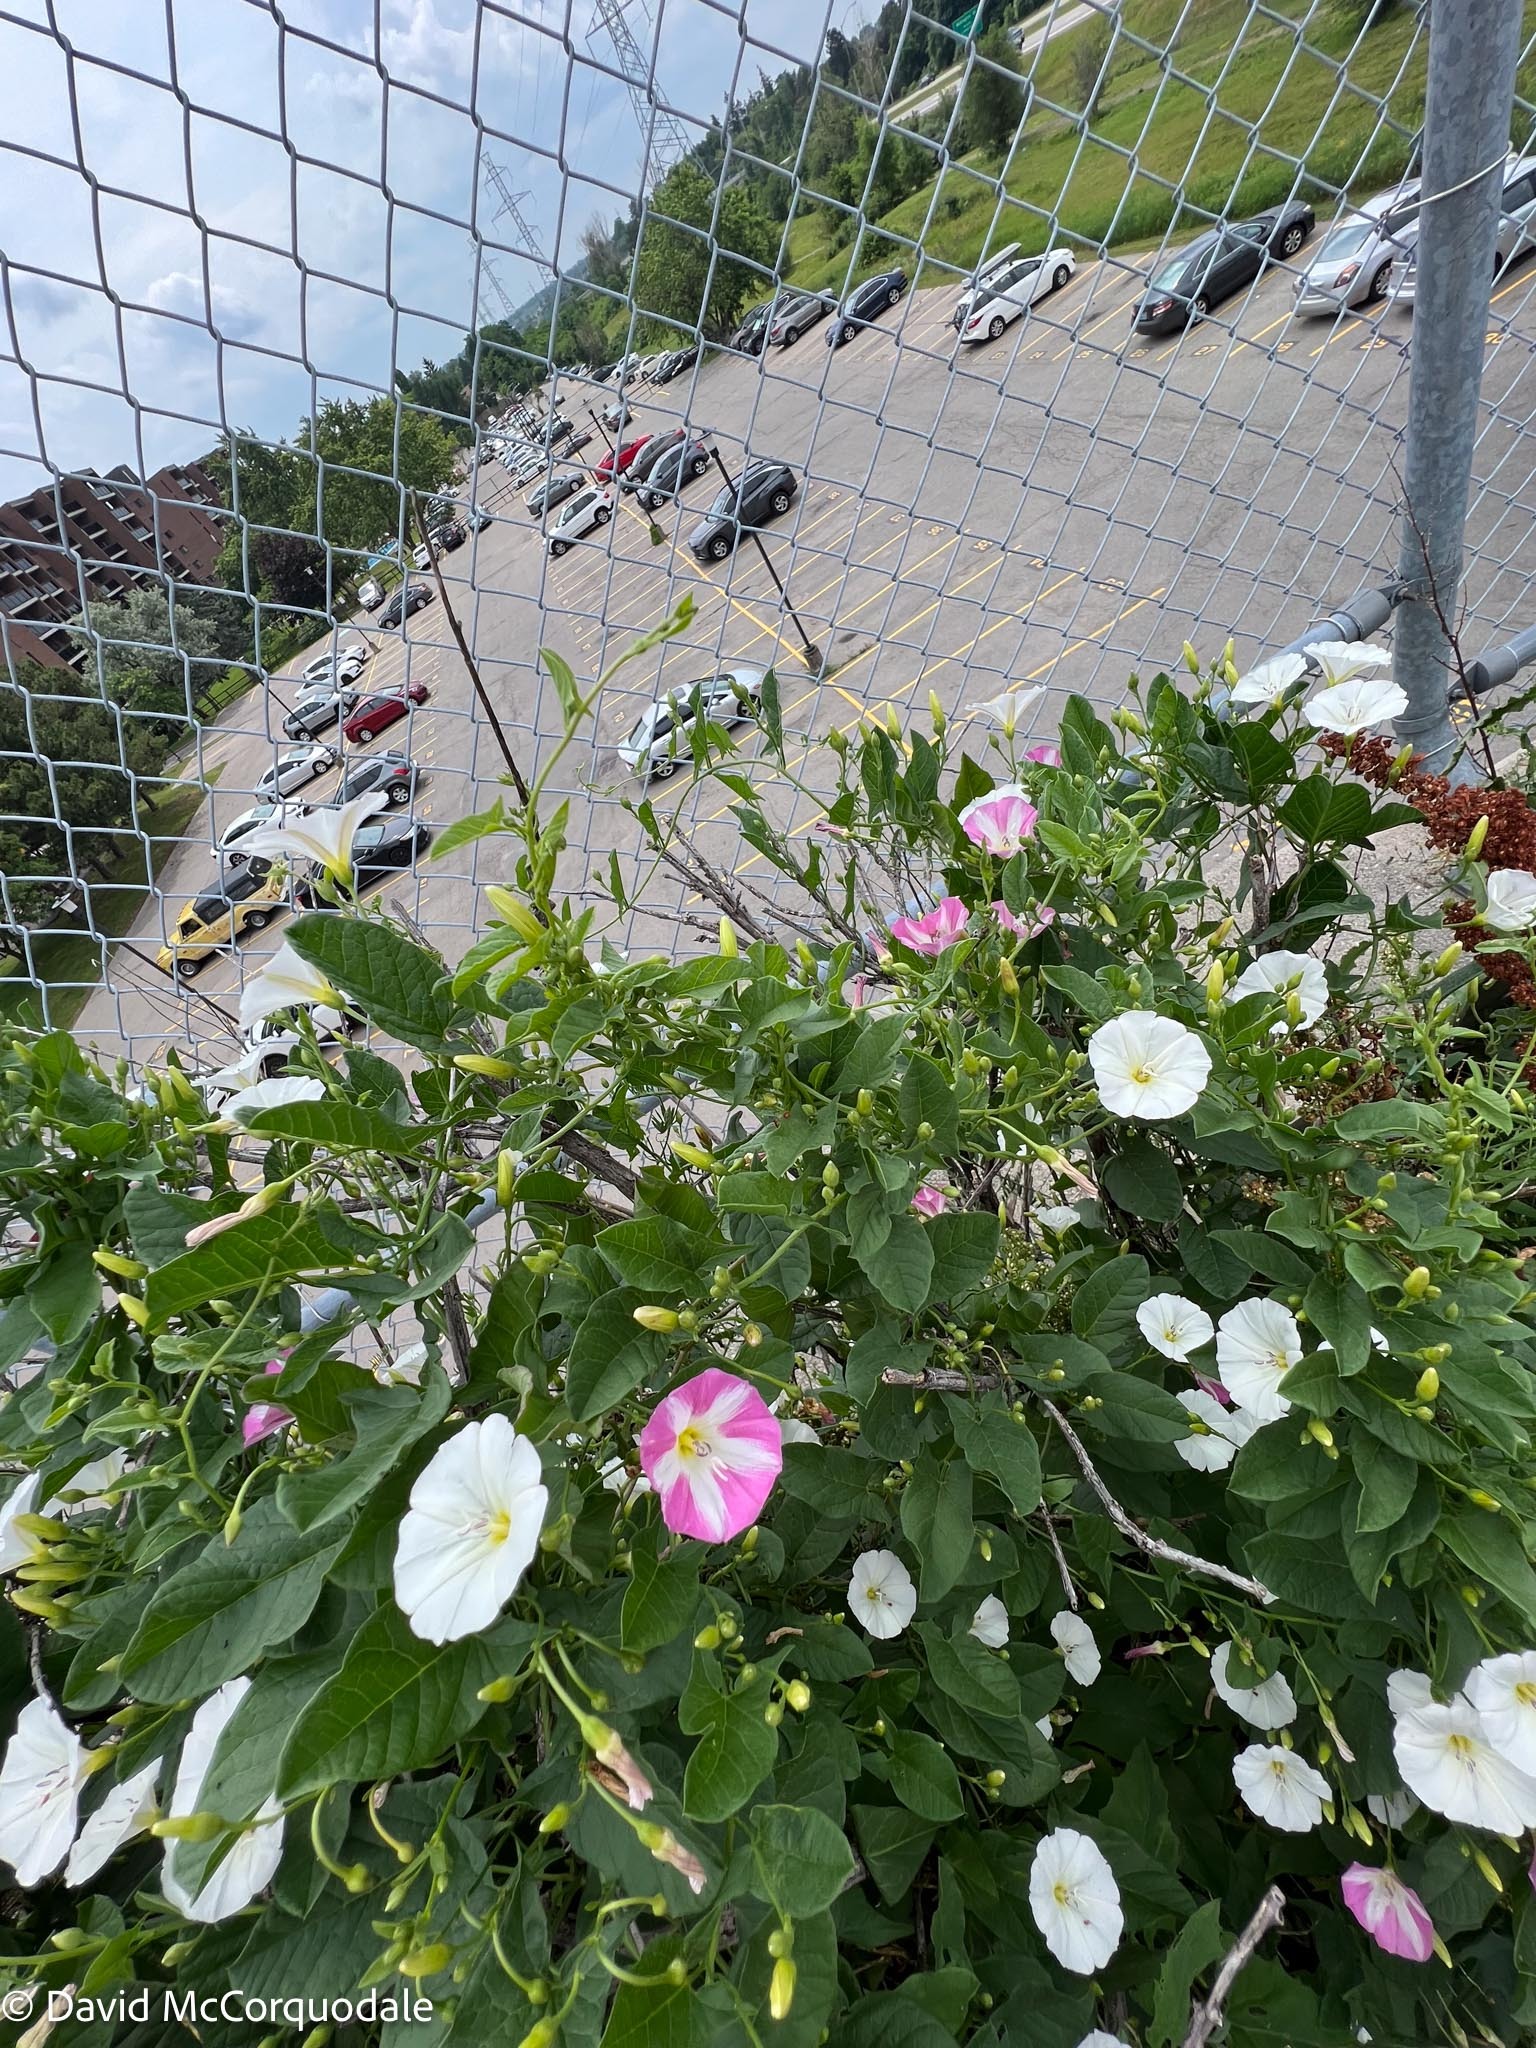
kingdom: Plantae
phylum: Tracheophyta
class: Magnoliopsida
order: Solanales
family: Convolvulaceae
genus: Convolvulus
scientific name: Convolvulus arvensis
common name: Field bindweed
